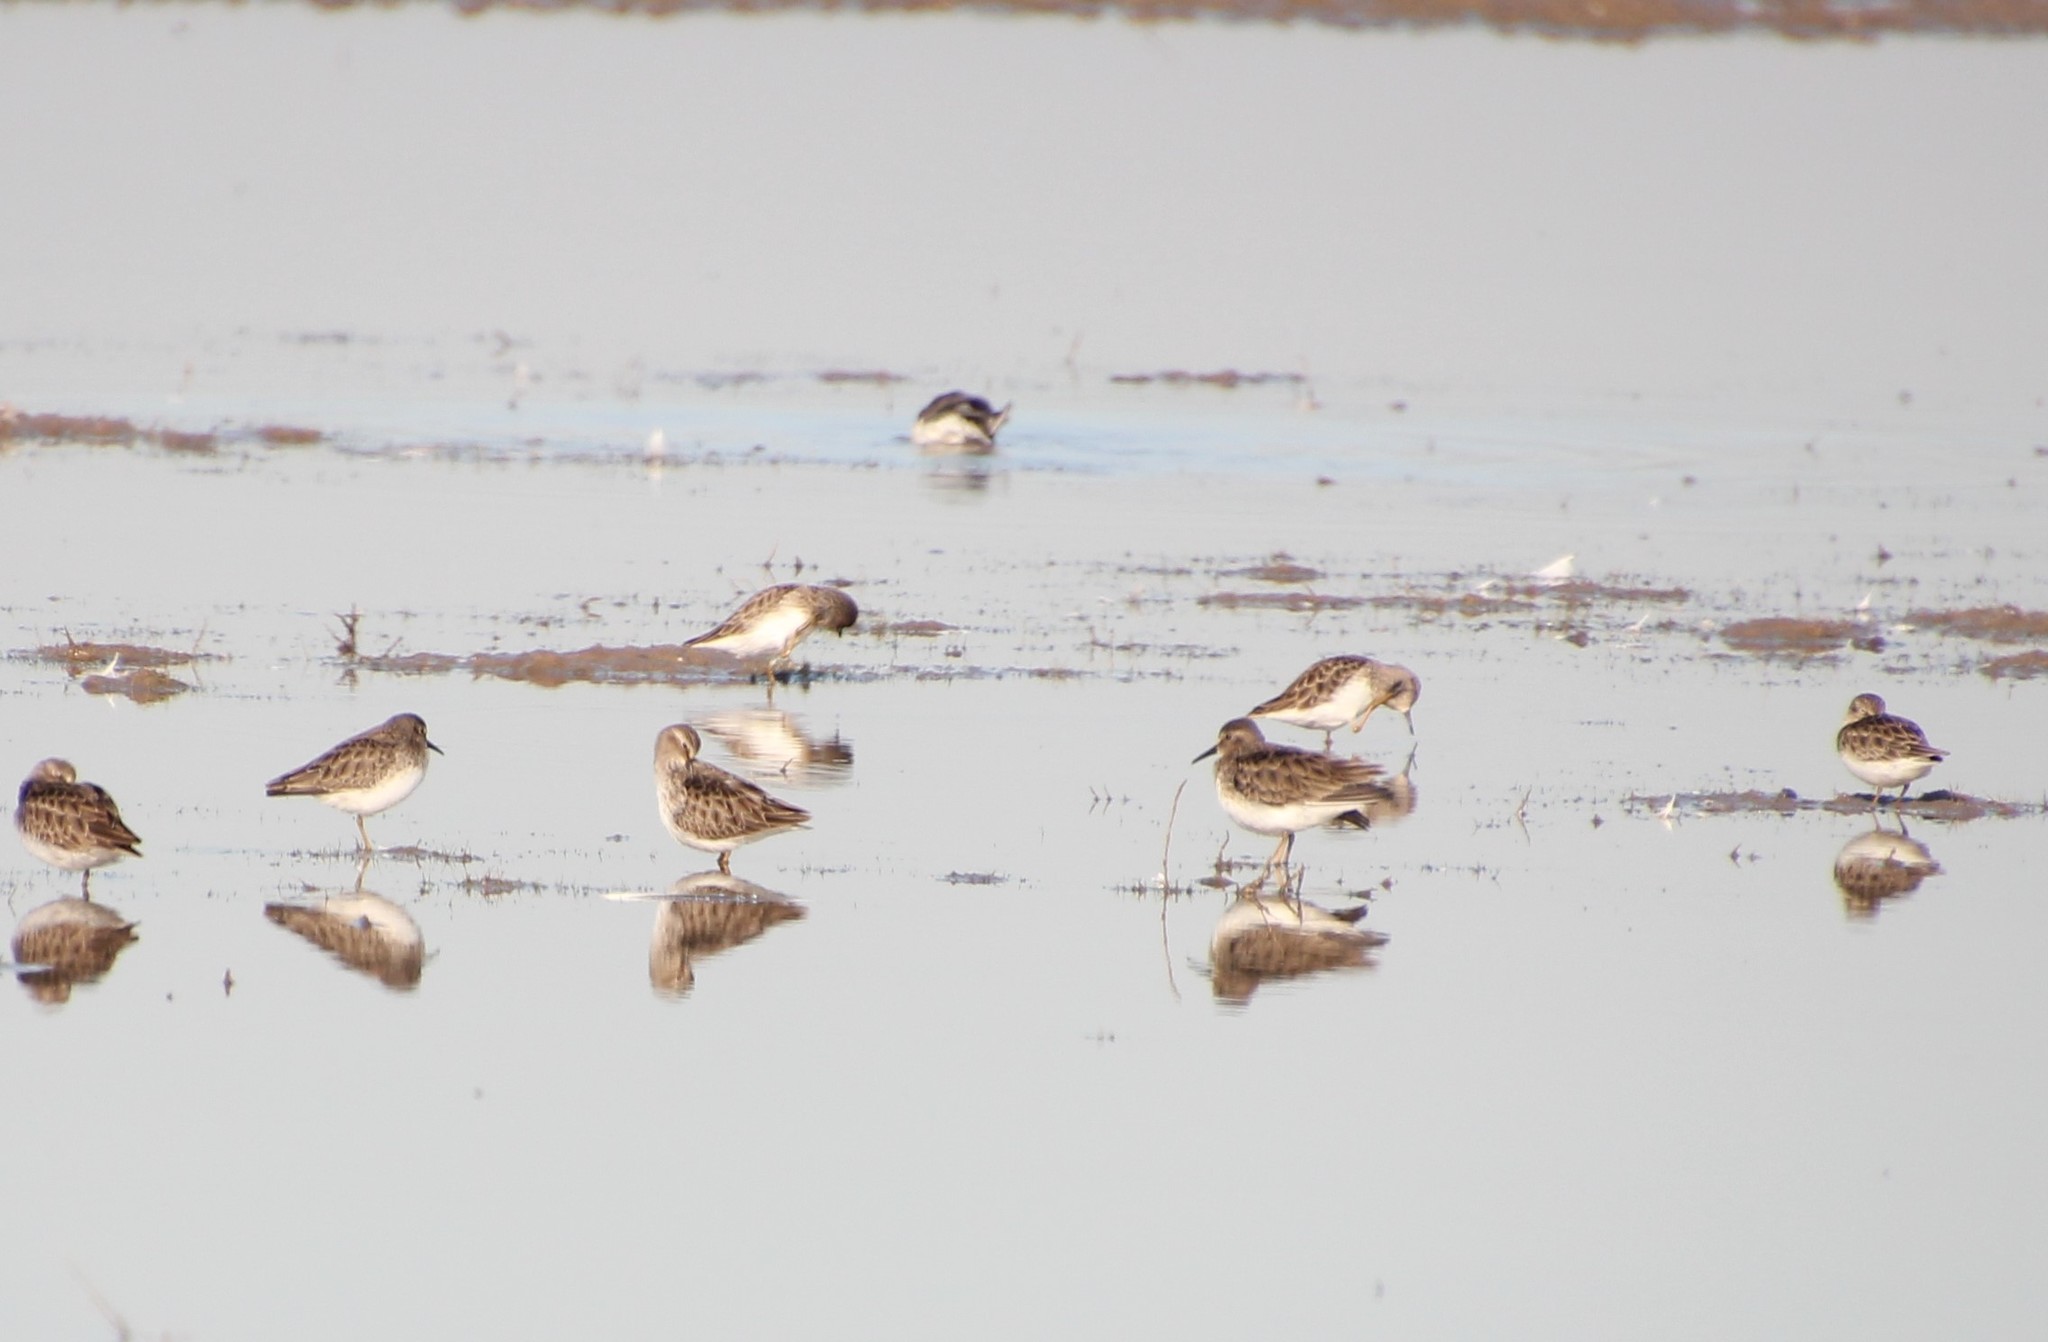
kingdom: Animalia
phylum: Chordata
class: Aves
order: Charadriiformes
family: Scolopacidae
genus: Calidris
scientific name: Calidris minutilla
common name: Least sandpiper
